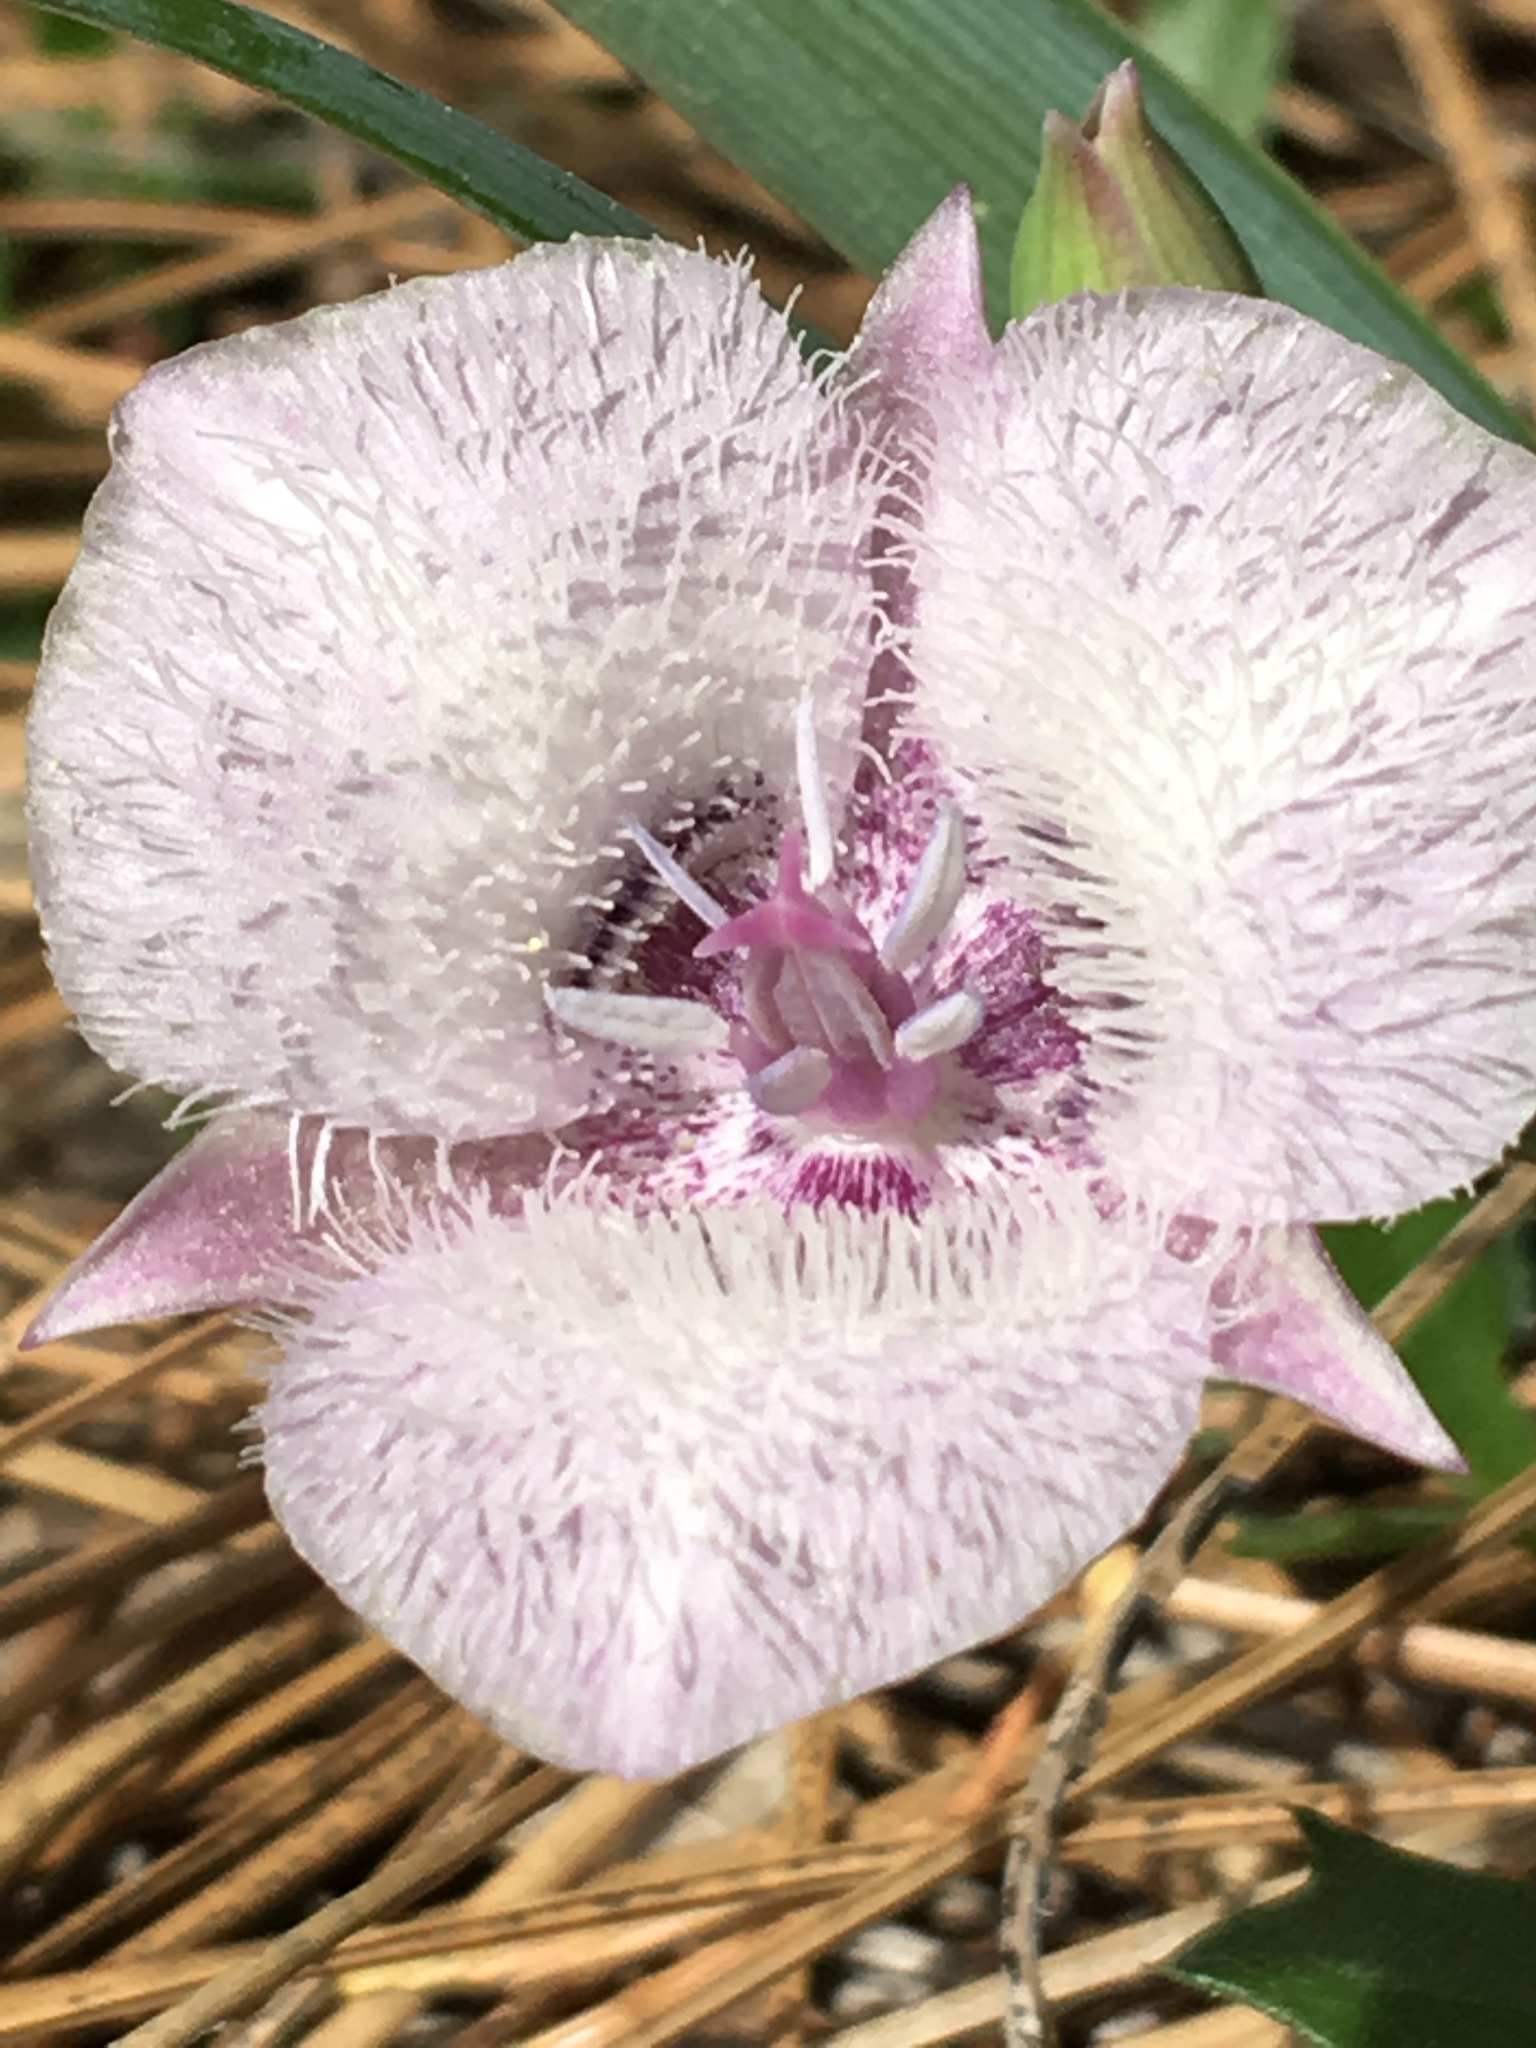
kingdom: Plantae
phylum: Tracheophyta
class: Liliopsida
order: Liliales
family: Liliaceae
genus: Calochortus
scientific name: Calochortus tolmiei
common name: Pussy-ears
